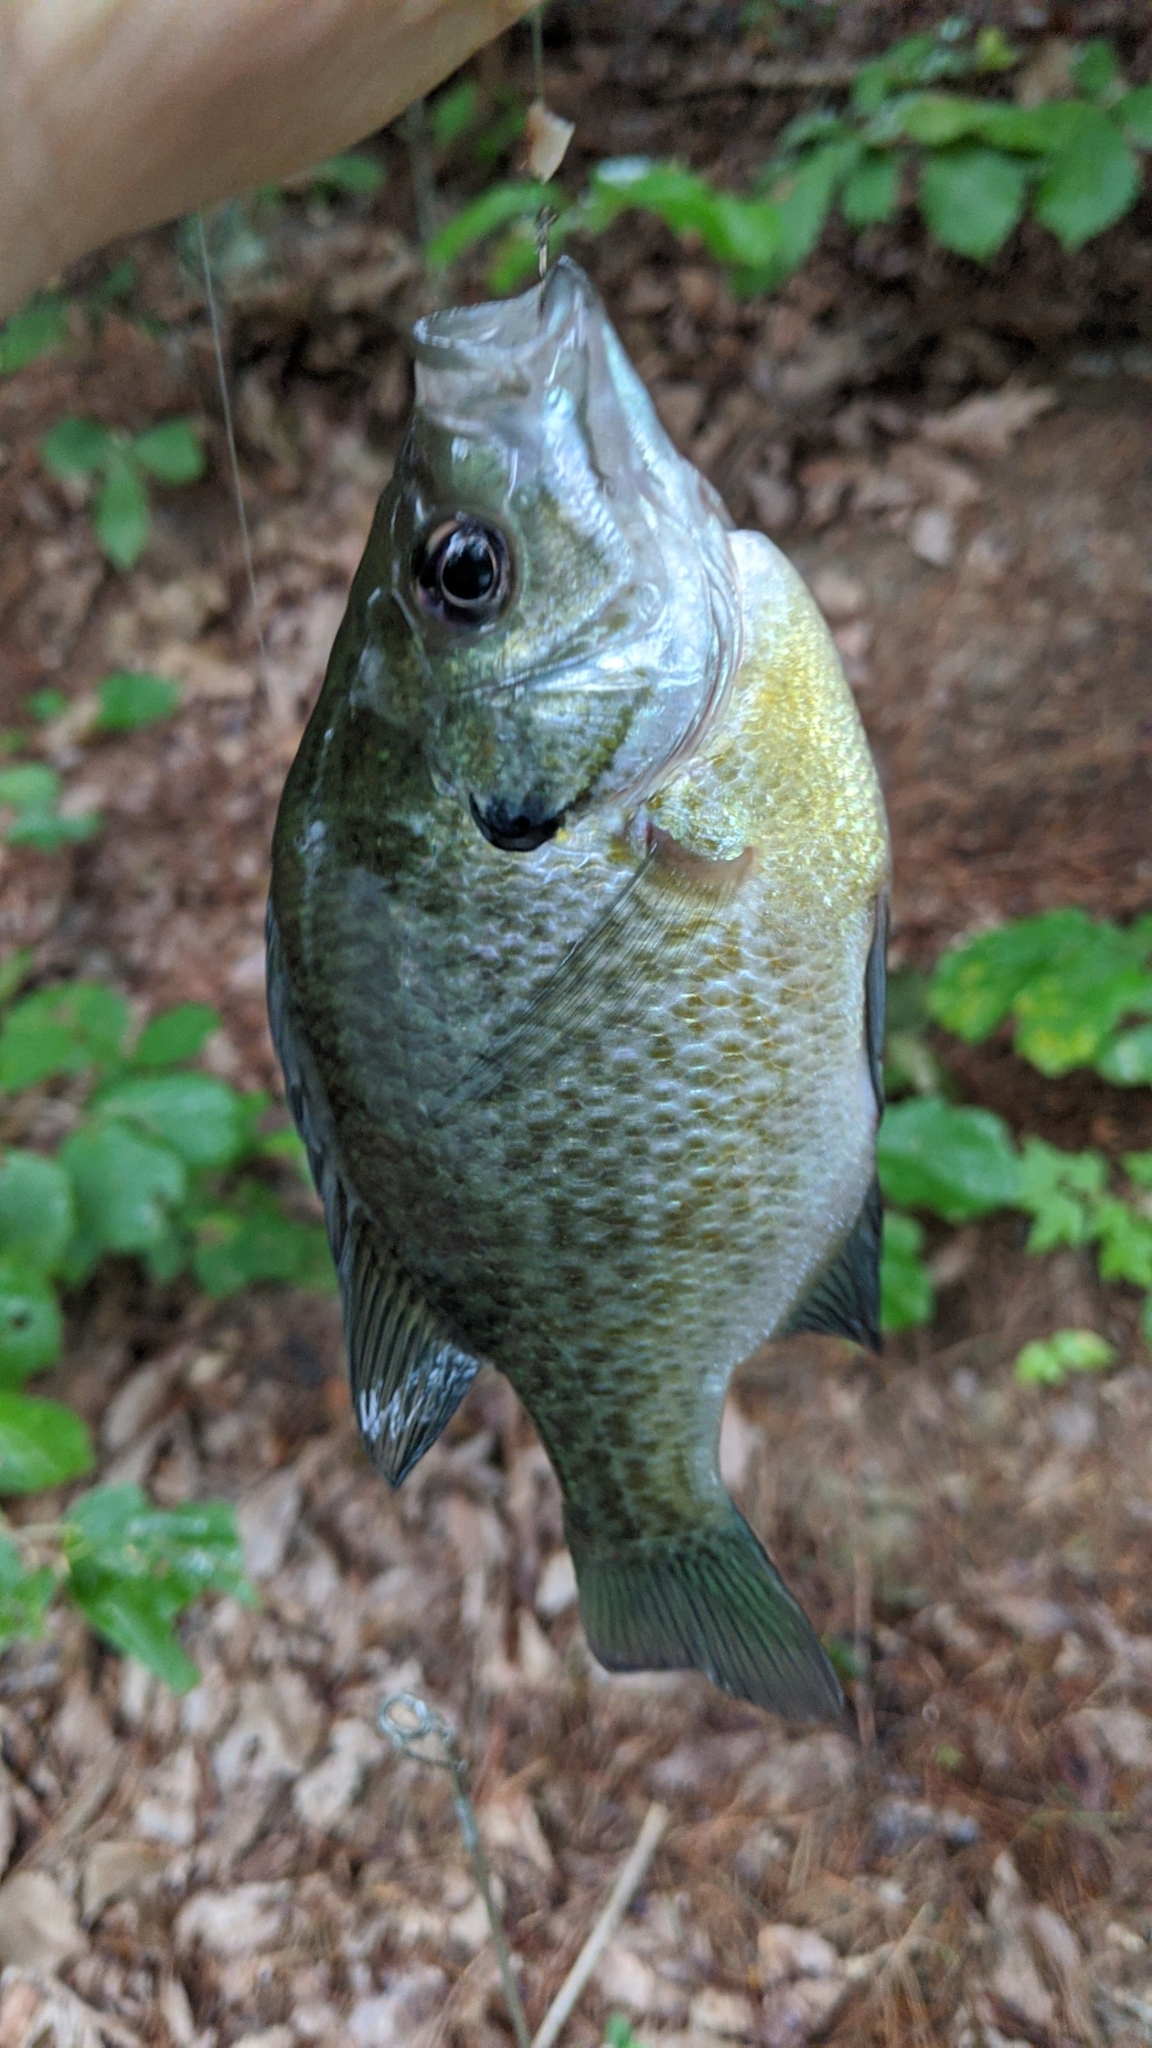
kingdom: Animalia
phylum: Chordata
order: Perciformes
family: Centrarchidae
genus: Lepomis
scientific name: Lepomis macrochirus
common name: Bluegill
